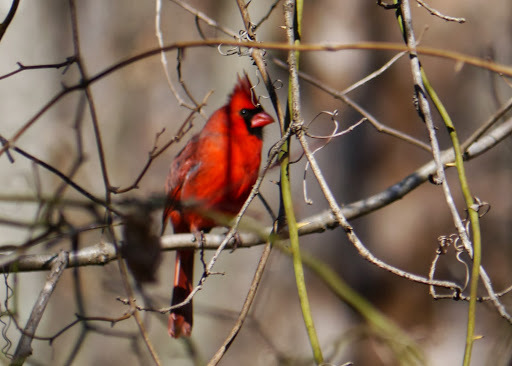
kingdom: Animalia
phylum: Chordata
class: Aves
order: Passeriformes
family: Cardinalidae
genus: Cardinalis
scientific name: Cardinalis cardinalis
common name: Northern cardinal
